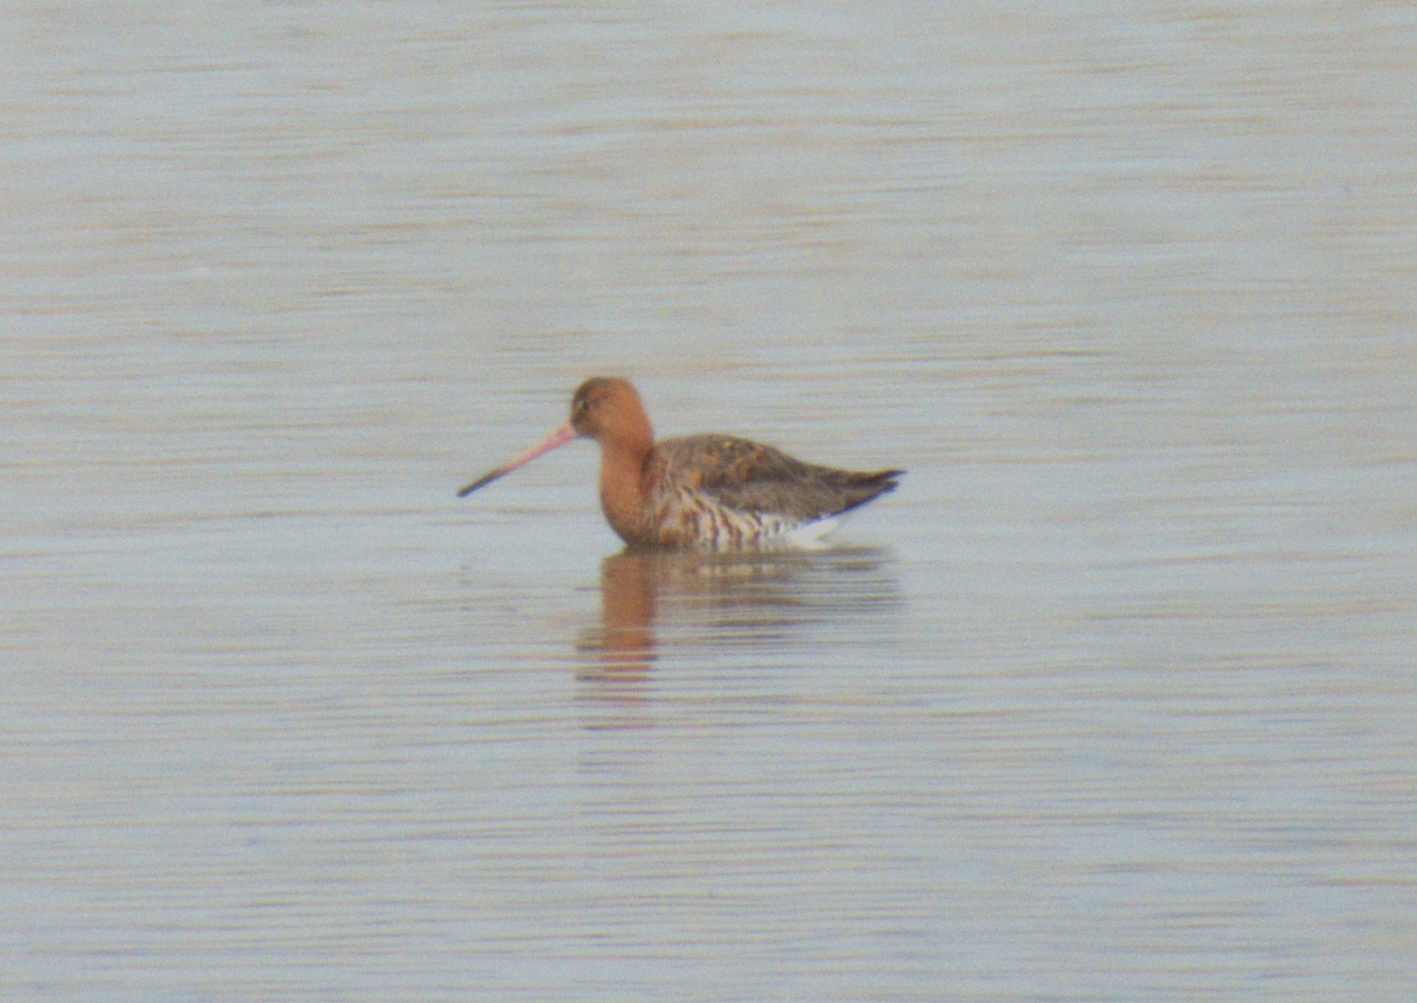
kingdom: Animalia
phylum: Chordata
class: Aves
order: Charadriiformes
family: Scolopacidae
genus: Limosa
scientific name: Limosa limosa
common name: Black-tailed godwit
